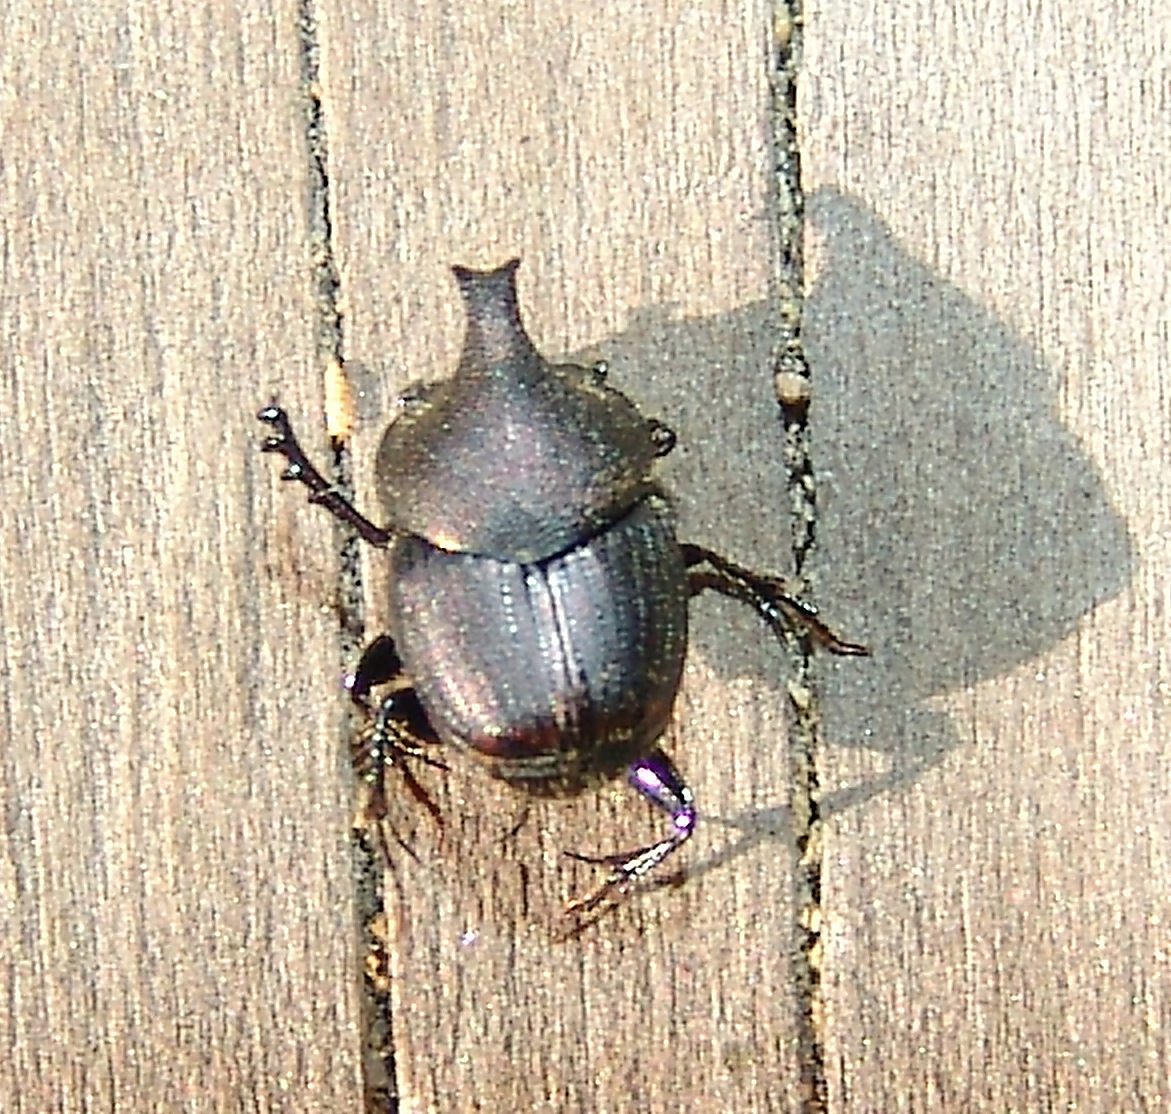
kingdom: Animalia
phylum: Arthropoda
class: Insecta
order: Coleoptera
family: Scarabaeidae
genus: Onthophagus
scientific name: Onthophagus hecate
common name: Scooped scarab
